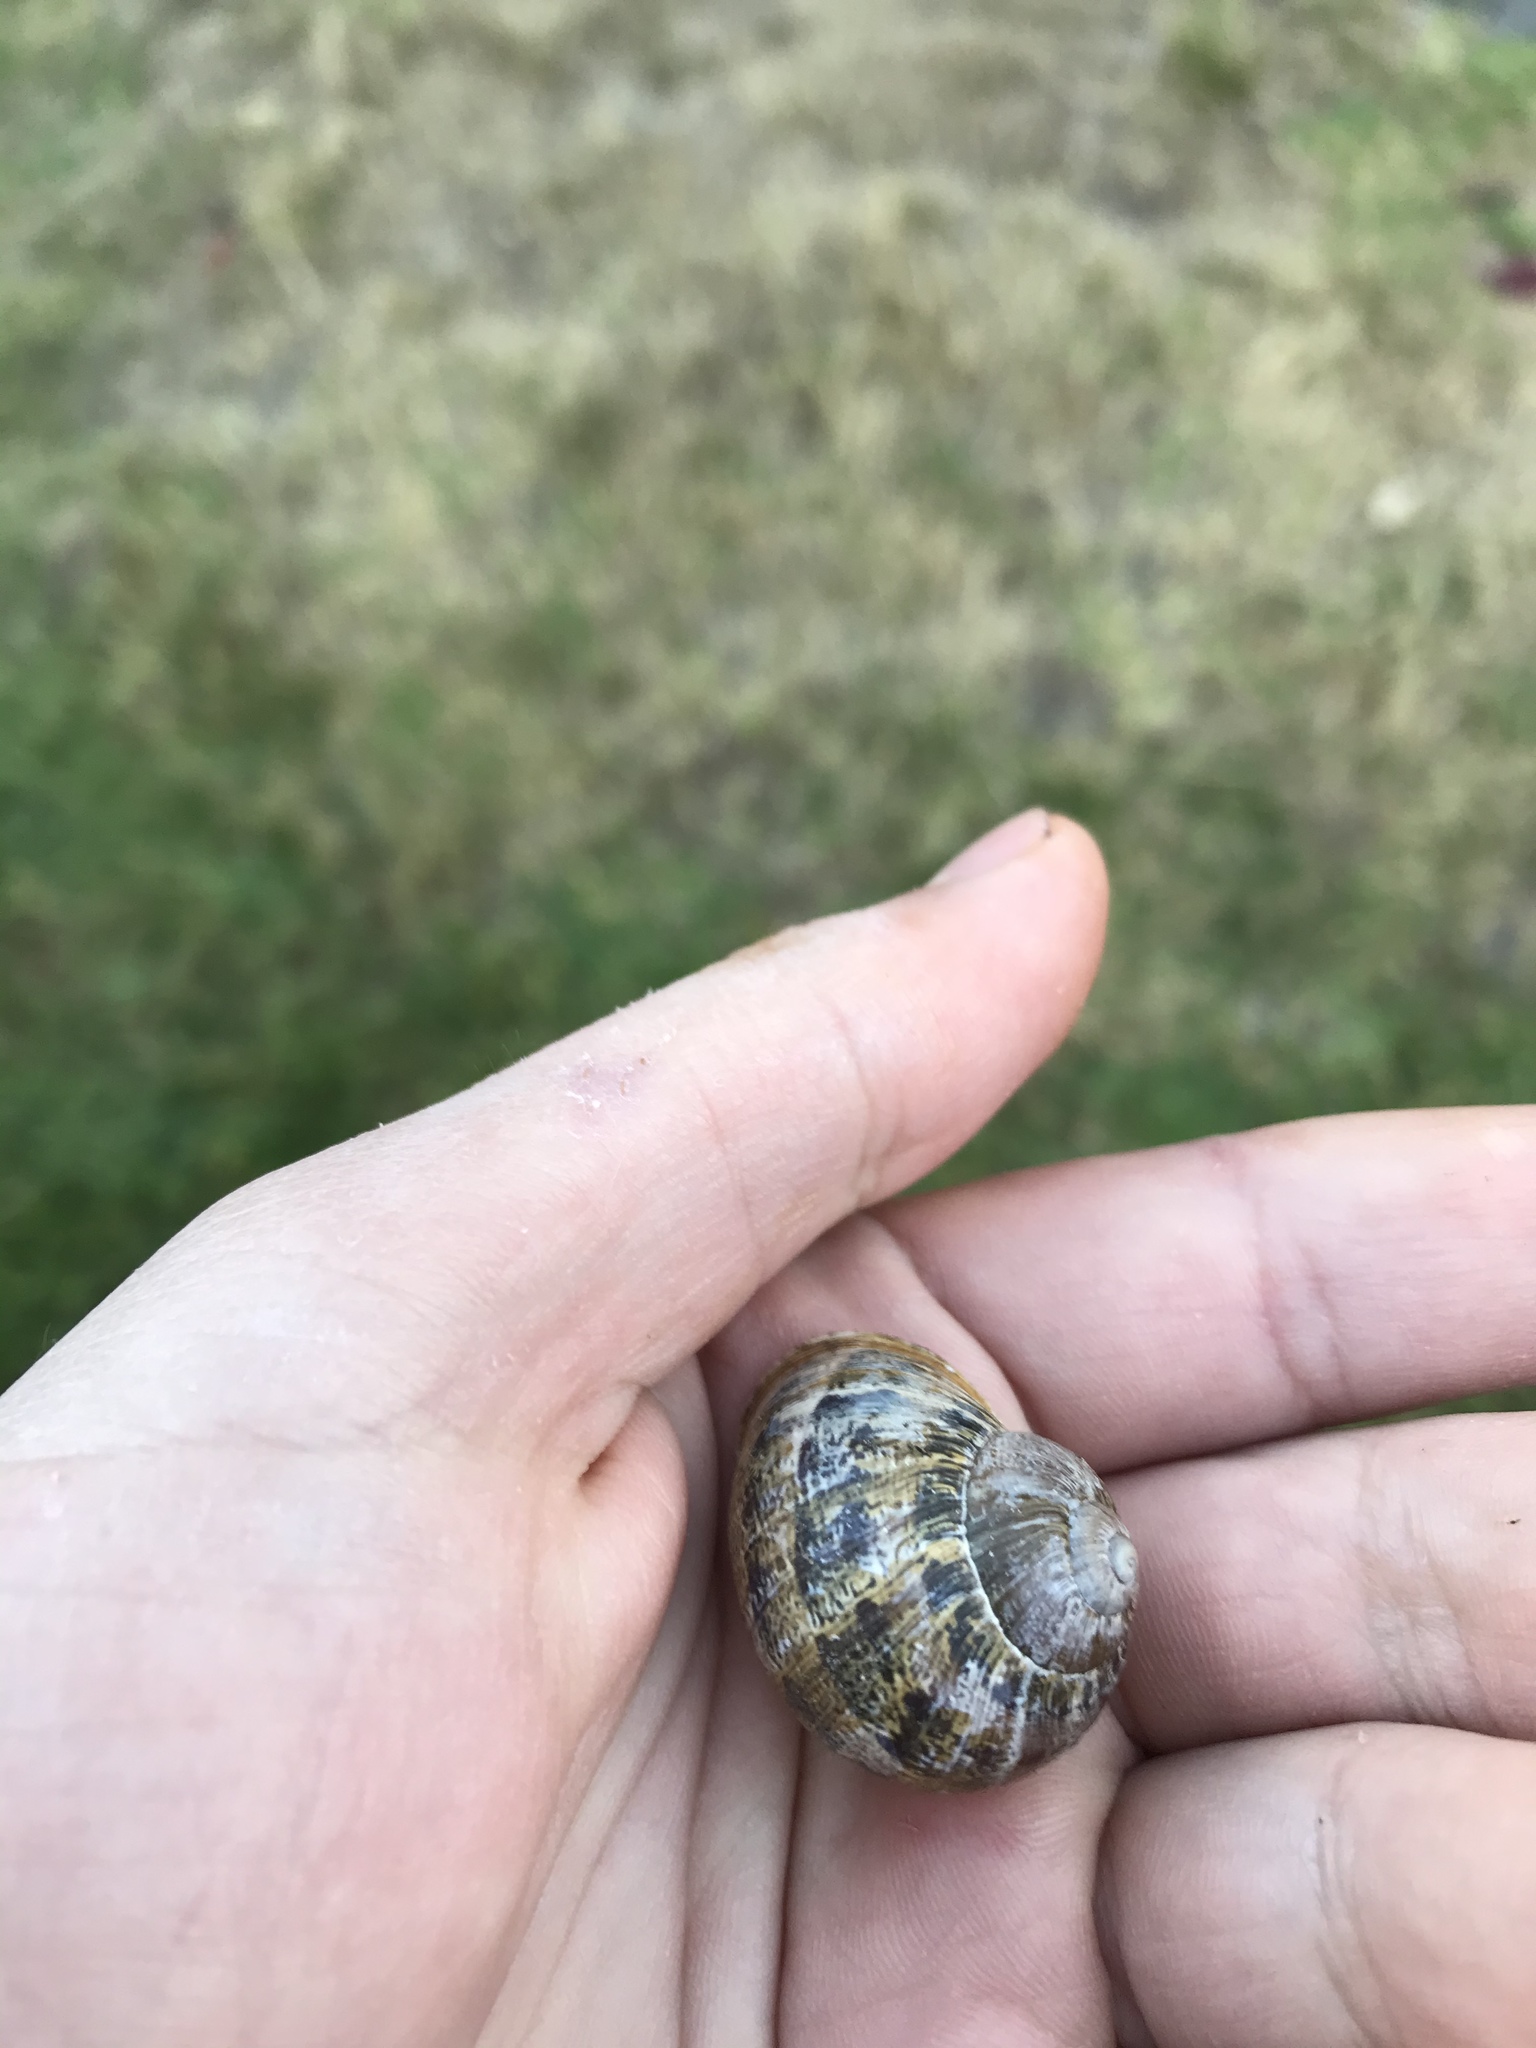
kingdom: Animalia
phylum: Mollusca
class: Gastropoda
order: Stylommatophora
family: Helicidae
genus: Cornu
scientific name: Cornu aspersum
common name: Brown garden snail
